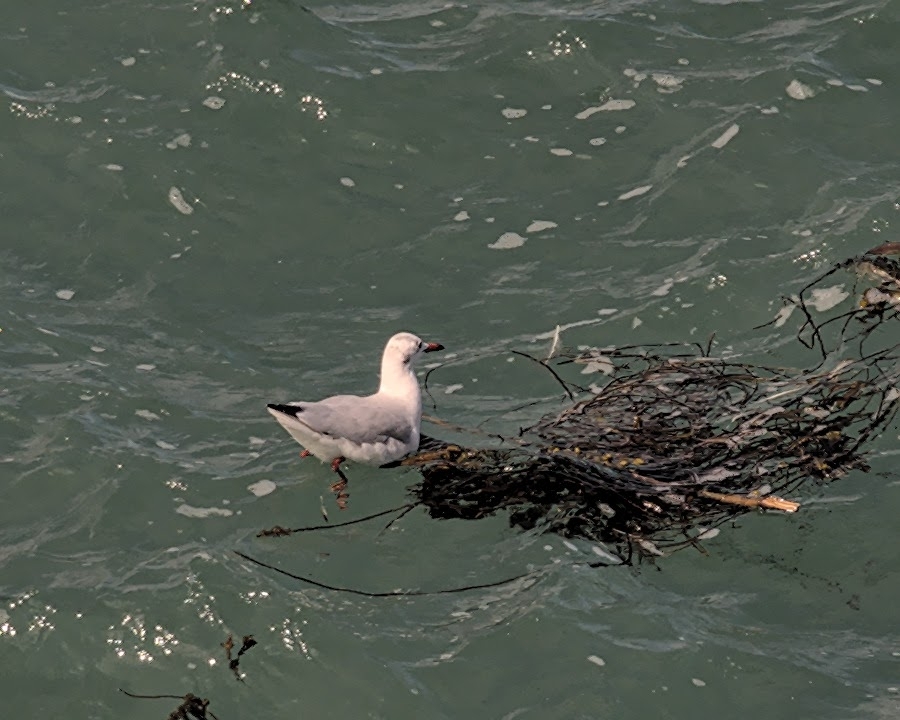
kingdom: Animalia
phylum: Chordata
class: Aves
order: Charadriiformes
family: Laridae
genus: Chroicocephalus
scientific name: Chroicocephalus ridibundus
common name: Black-headed gull
